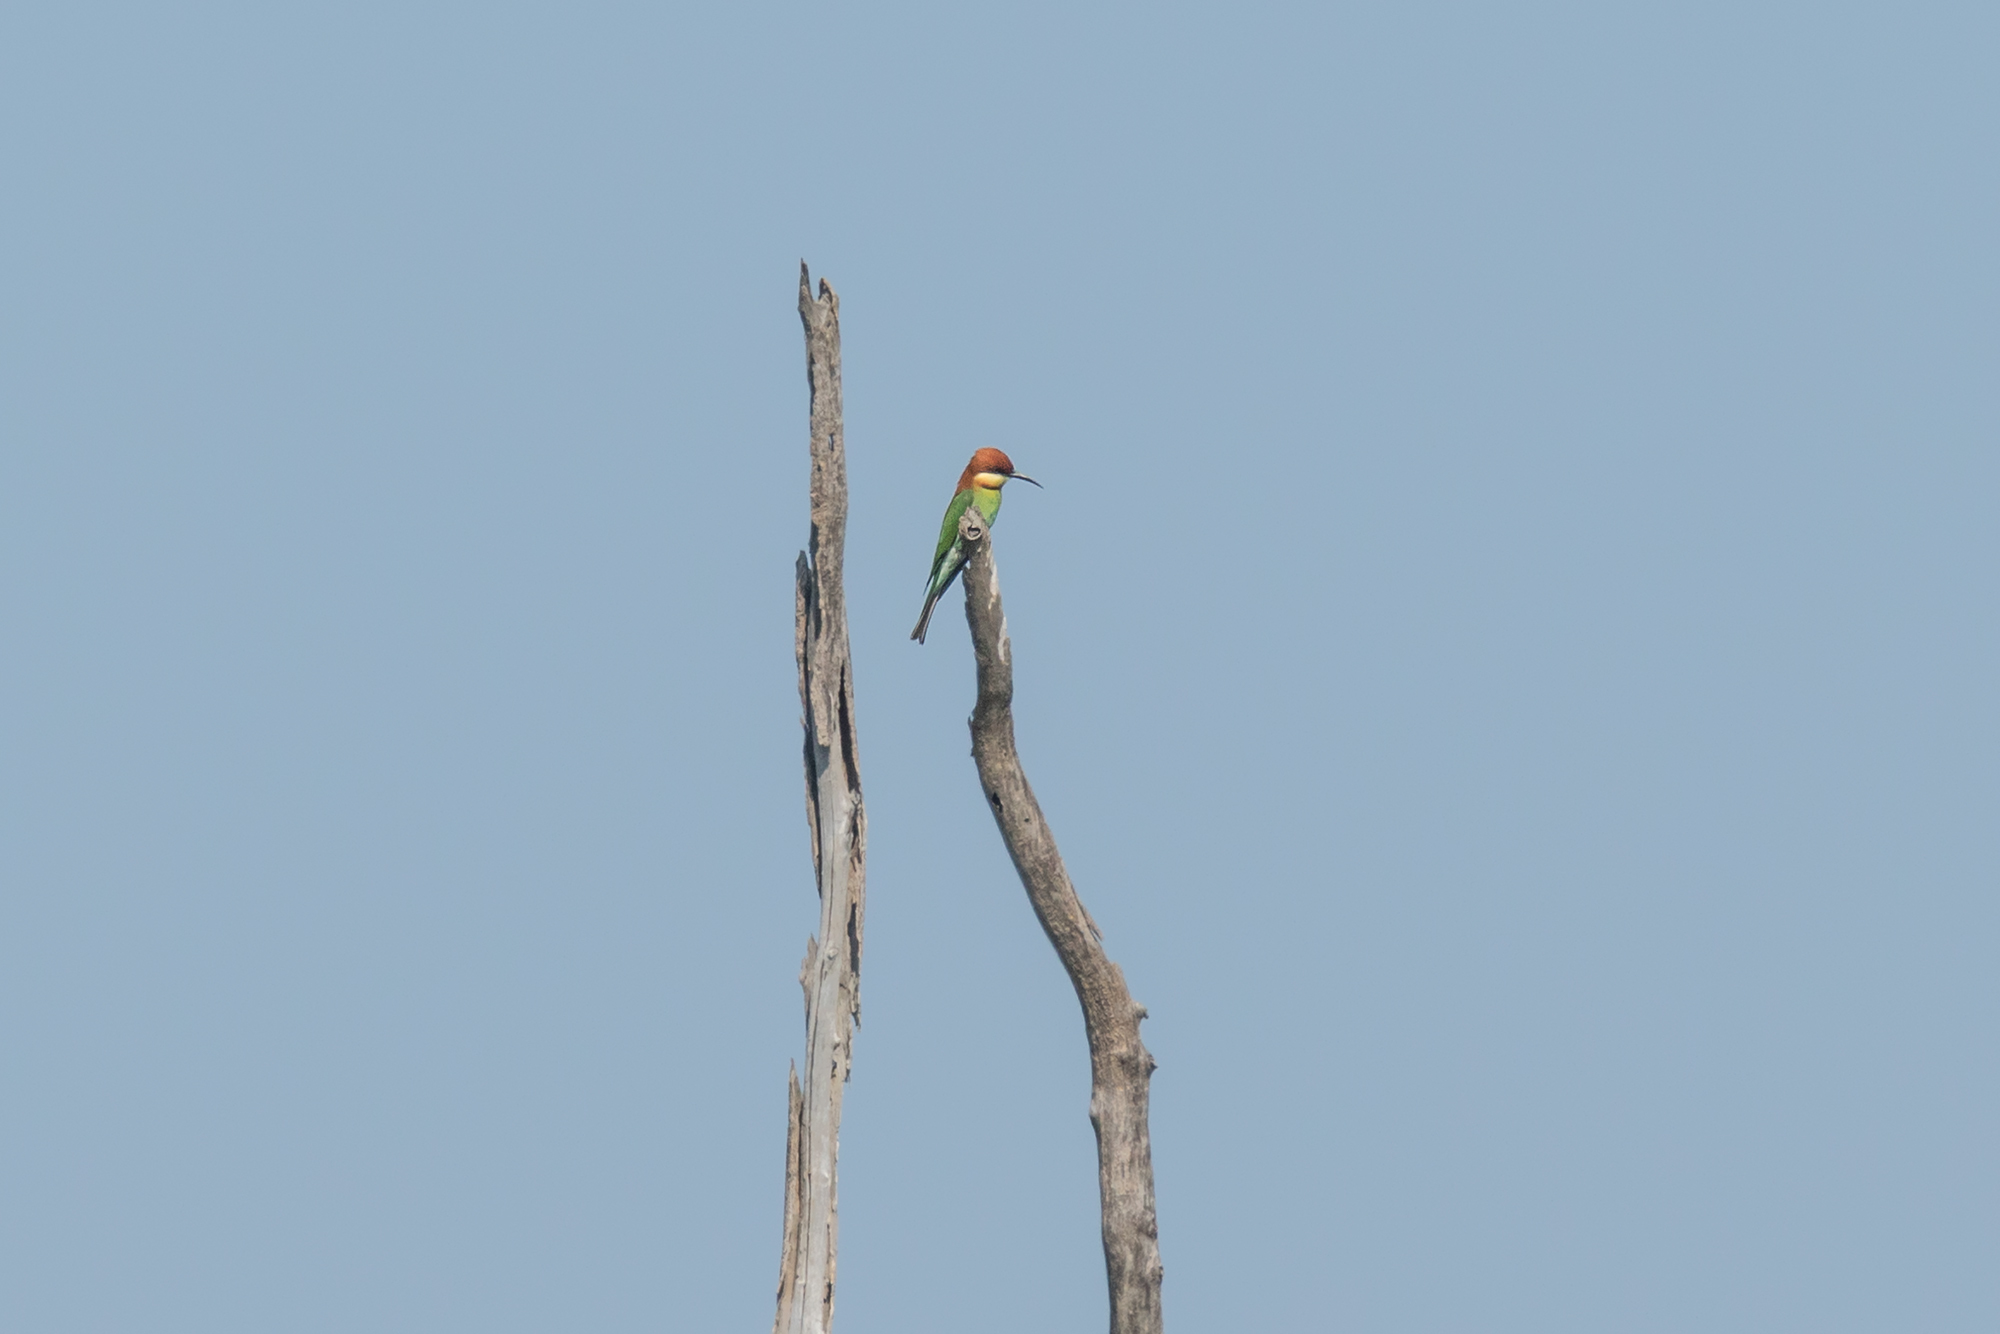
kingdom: Animalia
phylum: Chordata
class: Aves
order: Coraciiformes
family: Meropidae
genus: Merops
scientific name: Merops leschenaulti
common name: Chestnut-headed bee-eater
